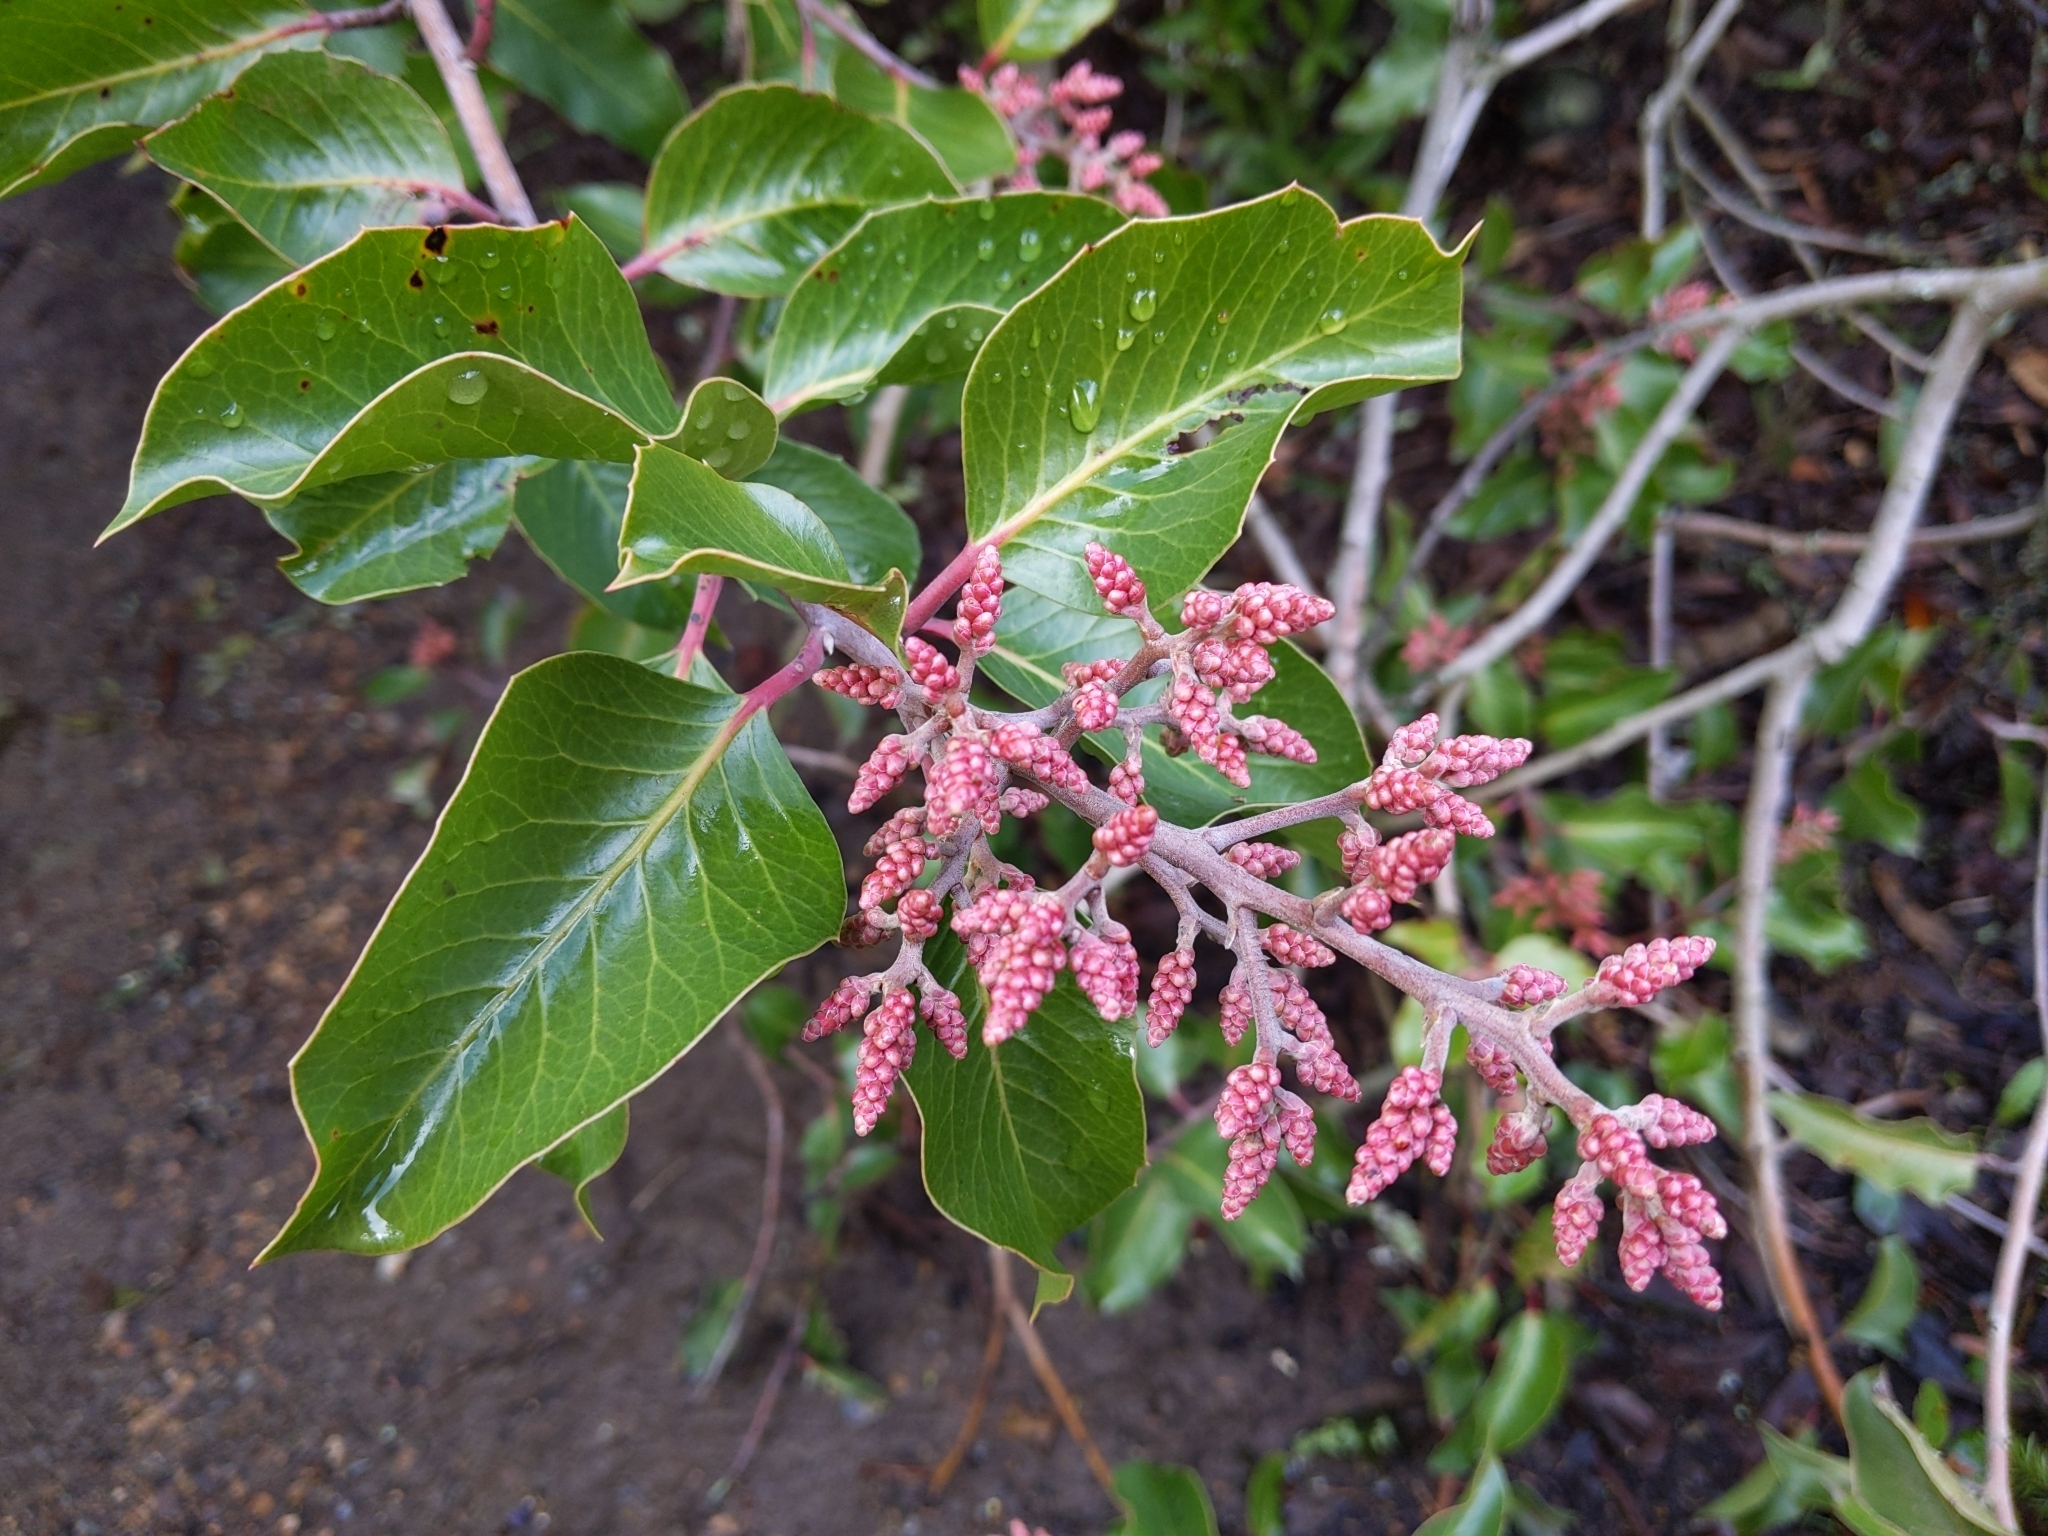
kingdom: Plantae
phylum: Tracheophyta
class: Magnoliopsida
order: Sapindales
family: Anacardiaceae
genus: Rhus
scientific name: Rhus ovata
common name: Sugar sumac
